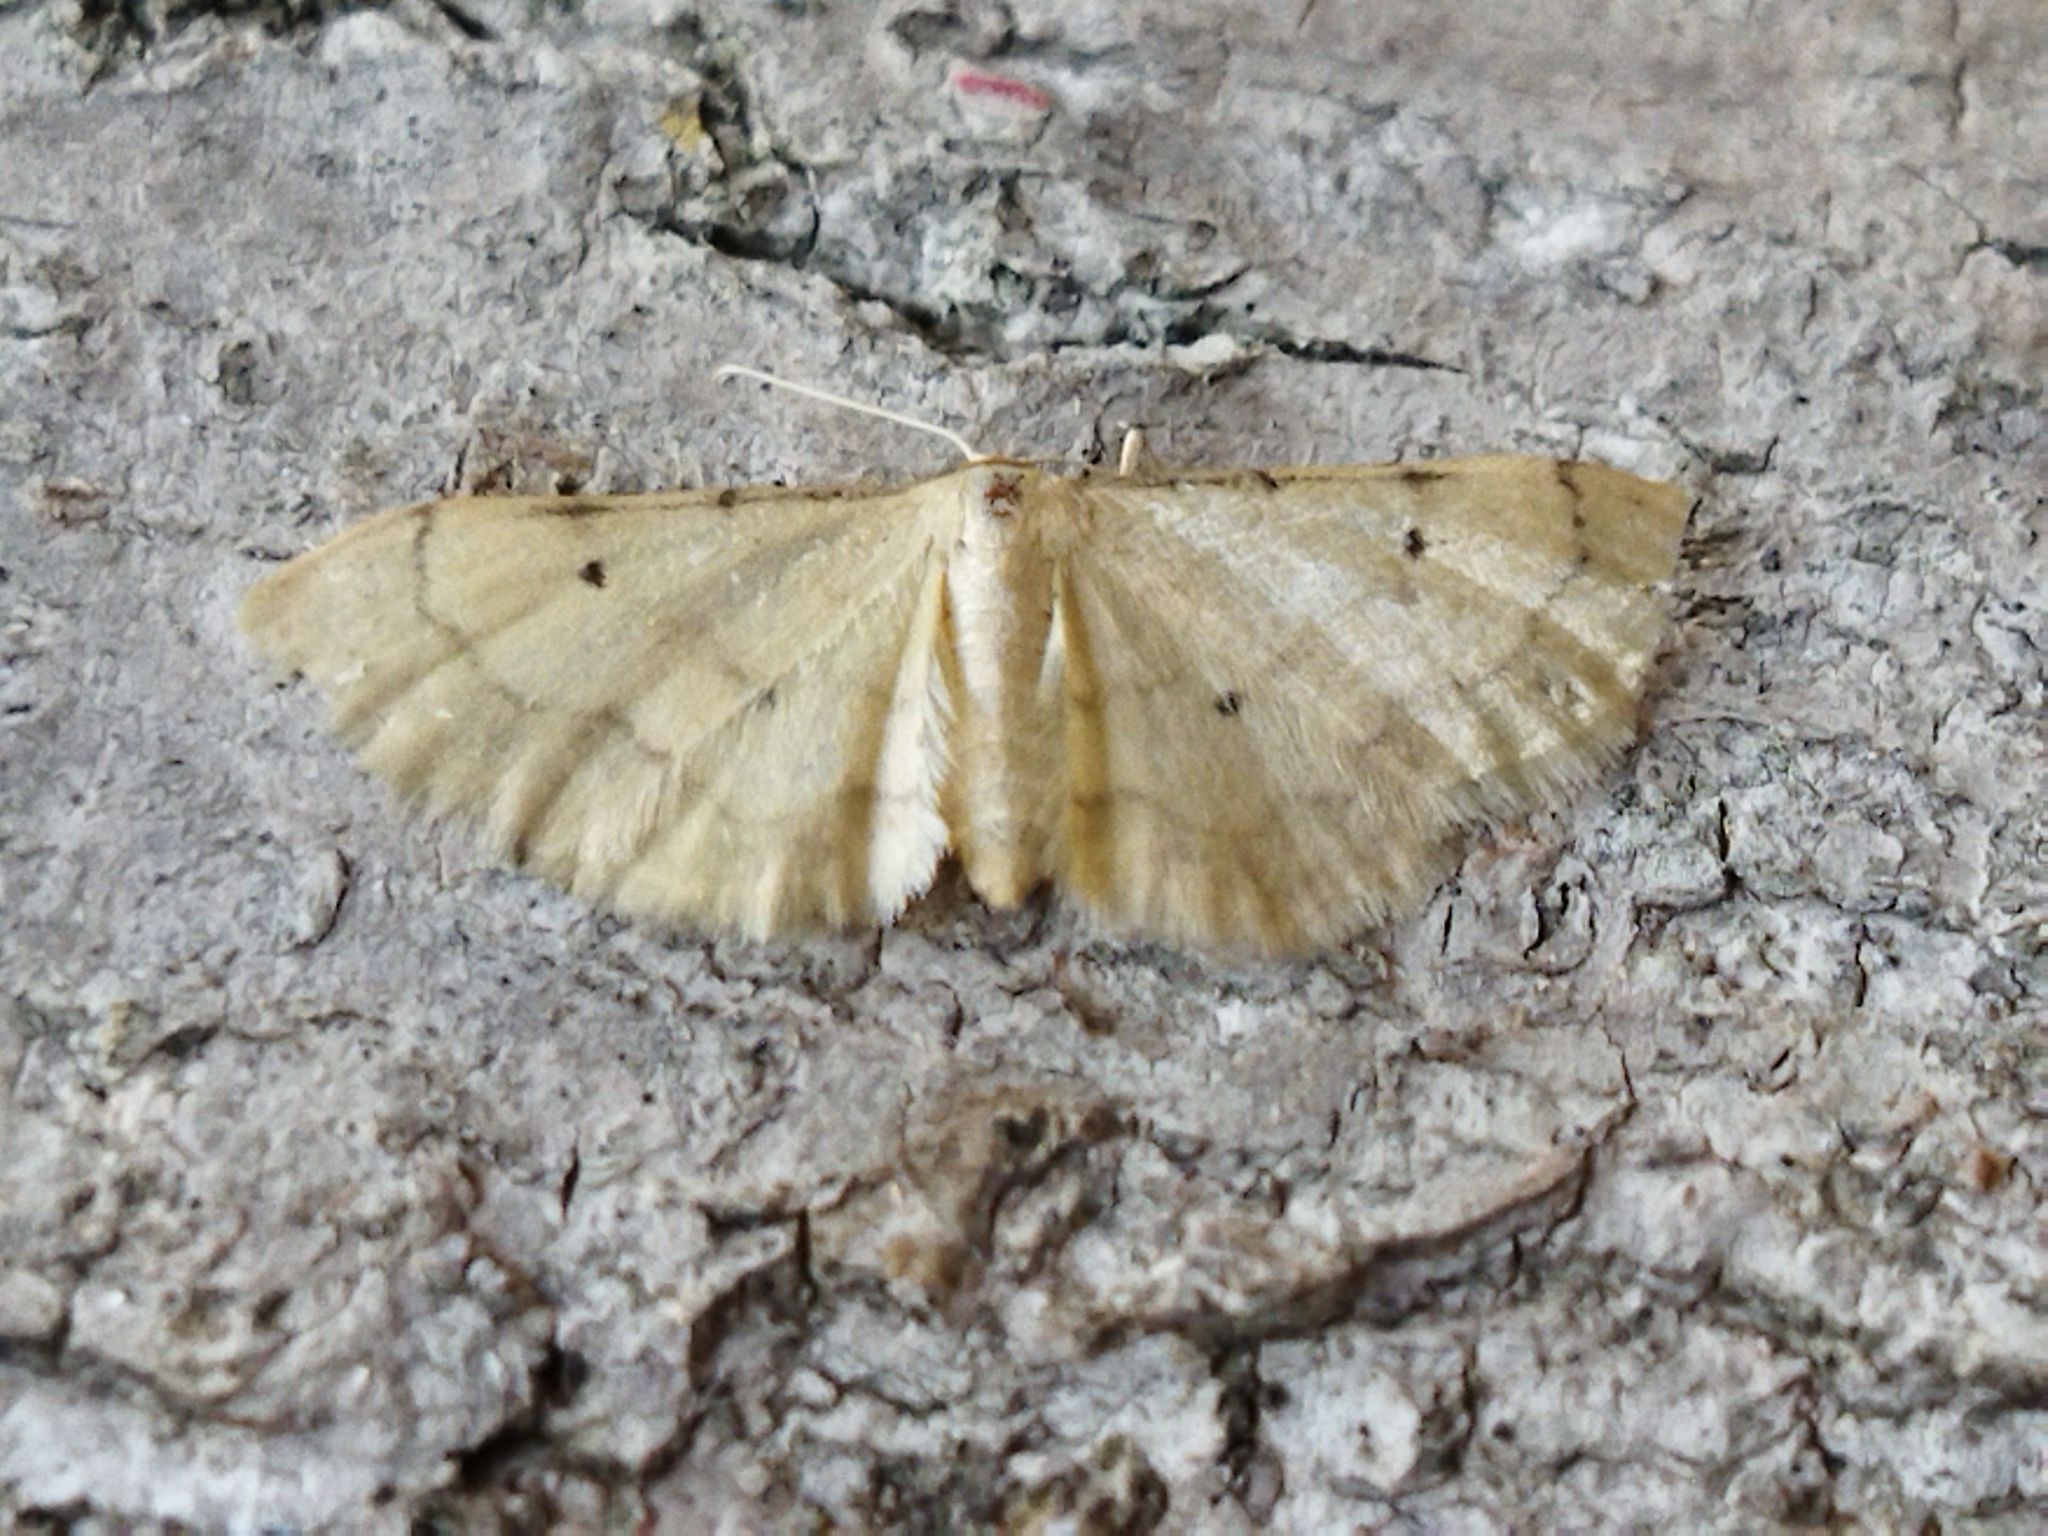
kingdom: Animalia
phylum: Arthropoda
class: Insecta
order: Lepidoptera
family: Geometridae
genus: Idaea
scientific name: Idaea politaria
